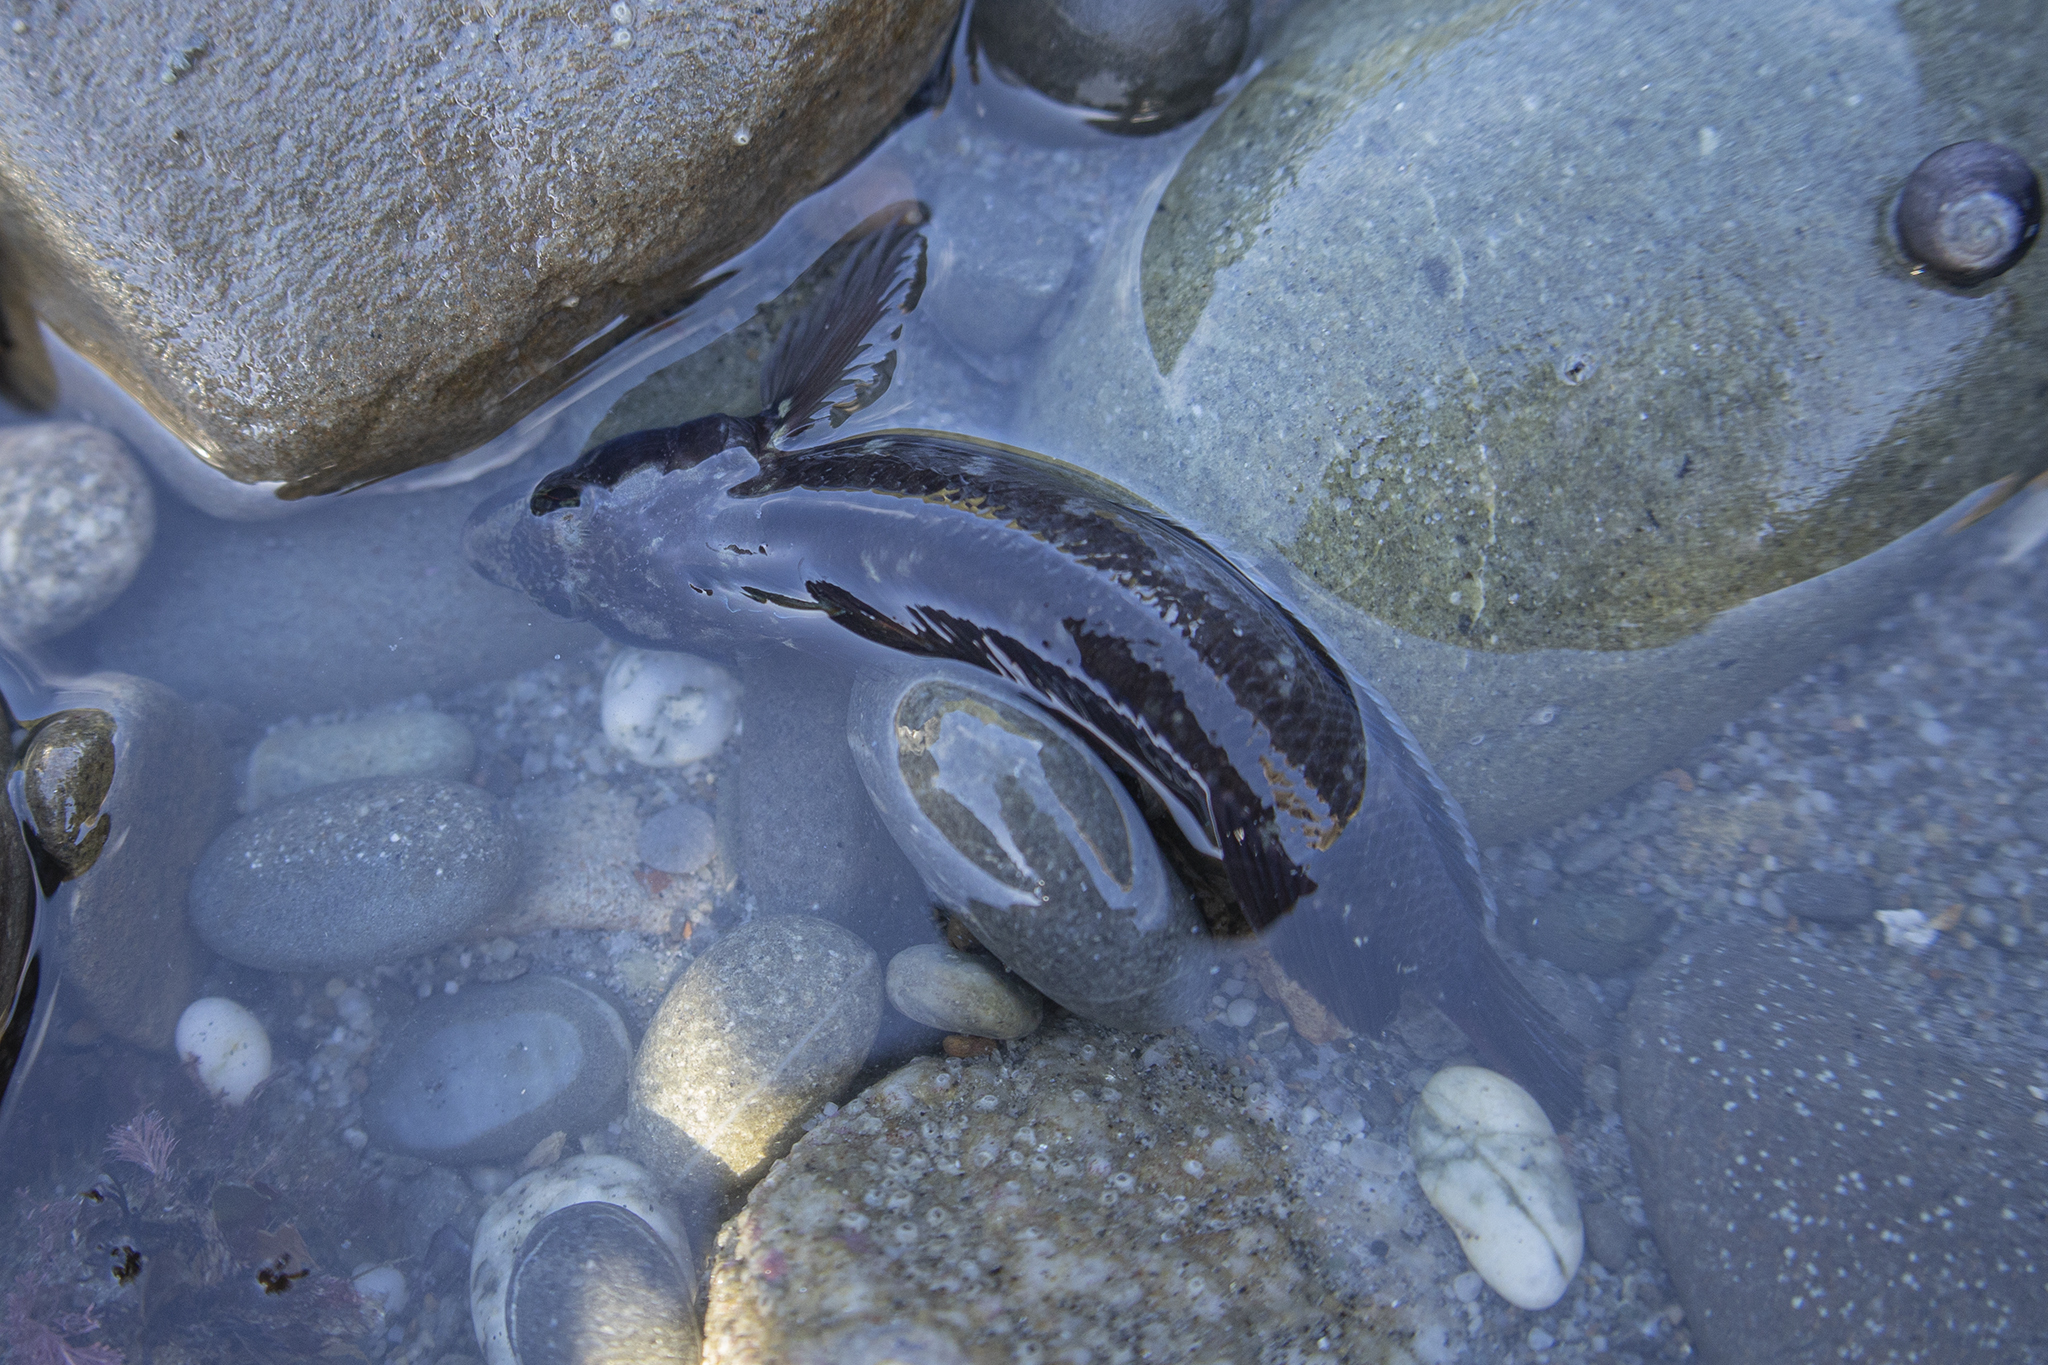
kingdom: Animalia
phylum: Chordata
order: Perciformes
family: Tripterygiidae
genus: Ruanoho
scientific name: Ruanoho decemdigitatus
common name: Longfinned triplefin
